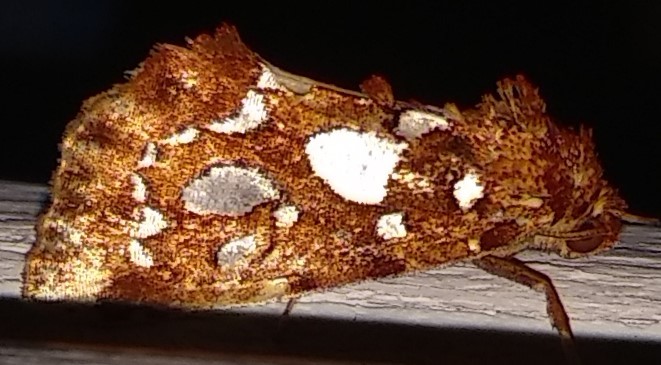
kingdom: Animalia
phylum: Arthropoda
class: Insecta
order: Lepidoptera
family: Noctuidae
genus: Callopistria
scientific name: Callopistria cordata
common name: Silver-spotted fern moth
